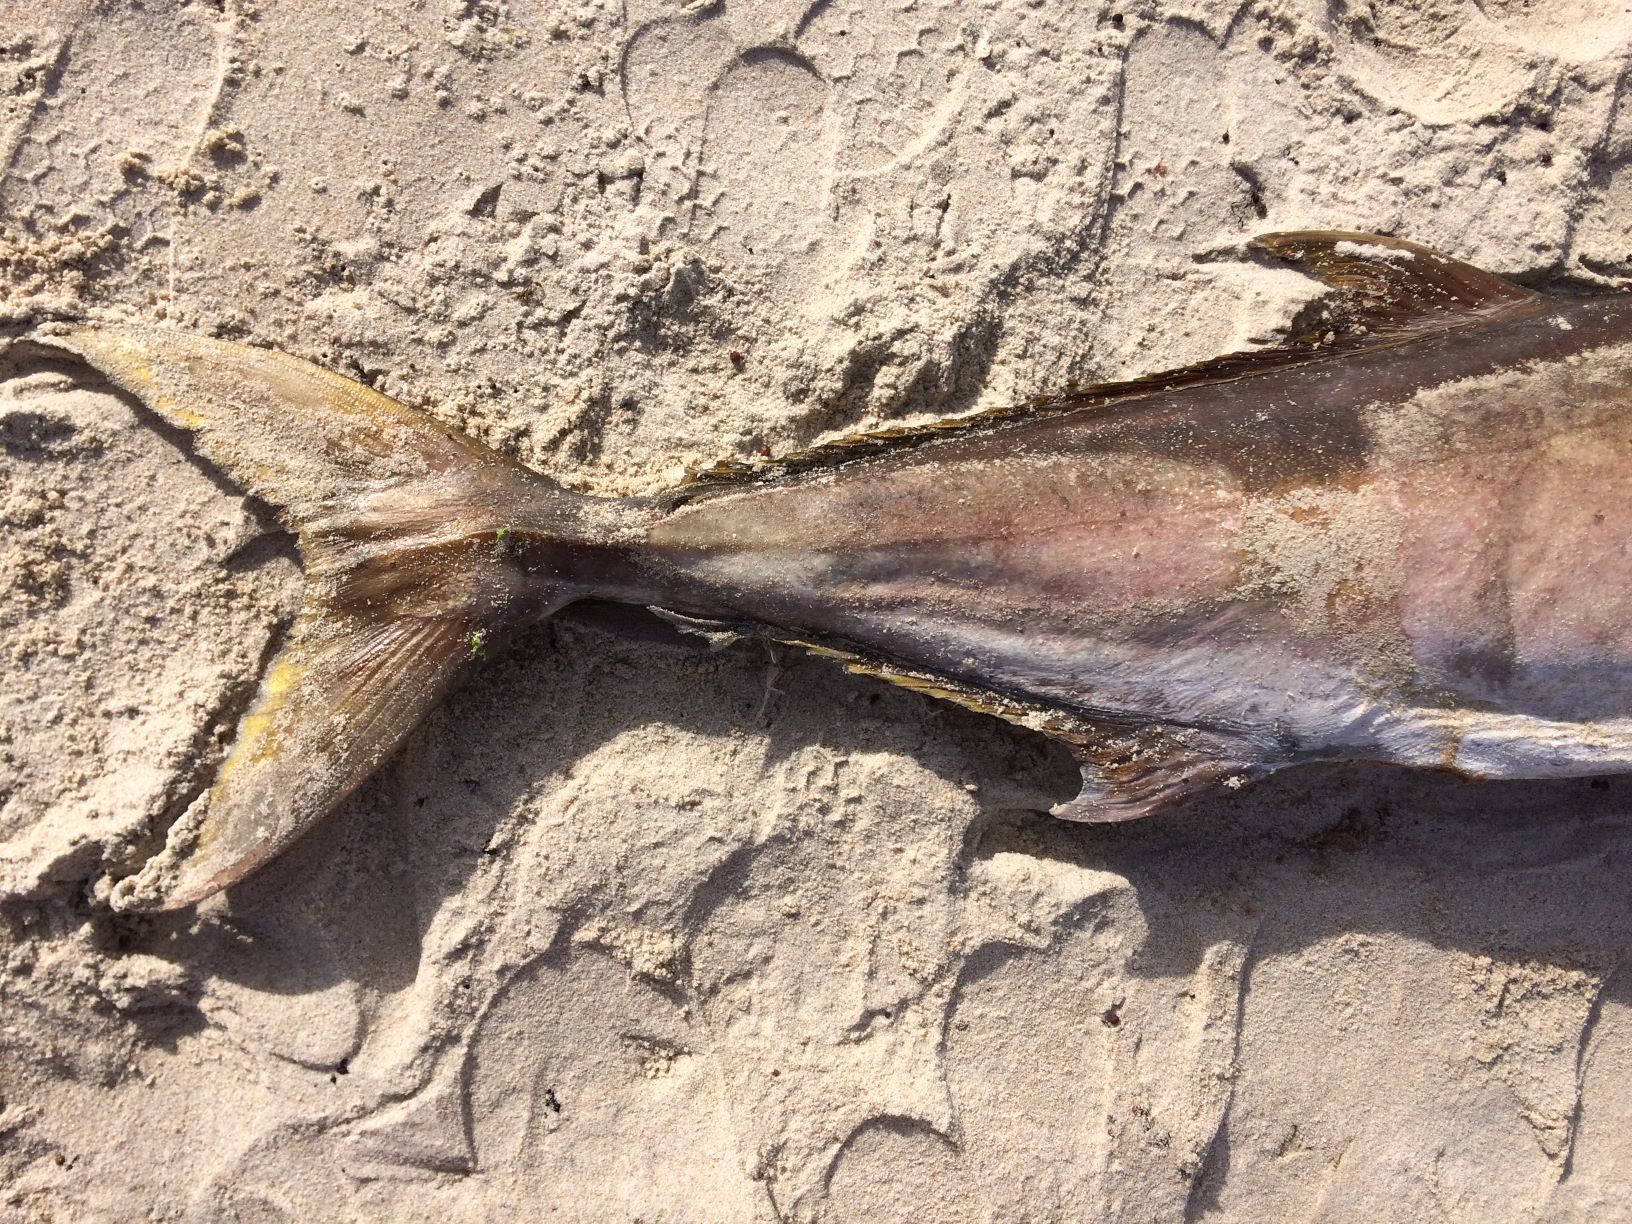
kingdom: Animalia
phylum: Chordata
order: Perciformes
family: Carangidae
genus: Seriola
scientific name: Seriola hippos
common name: Samson fish
